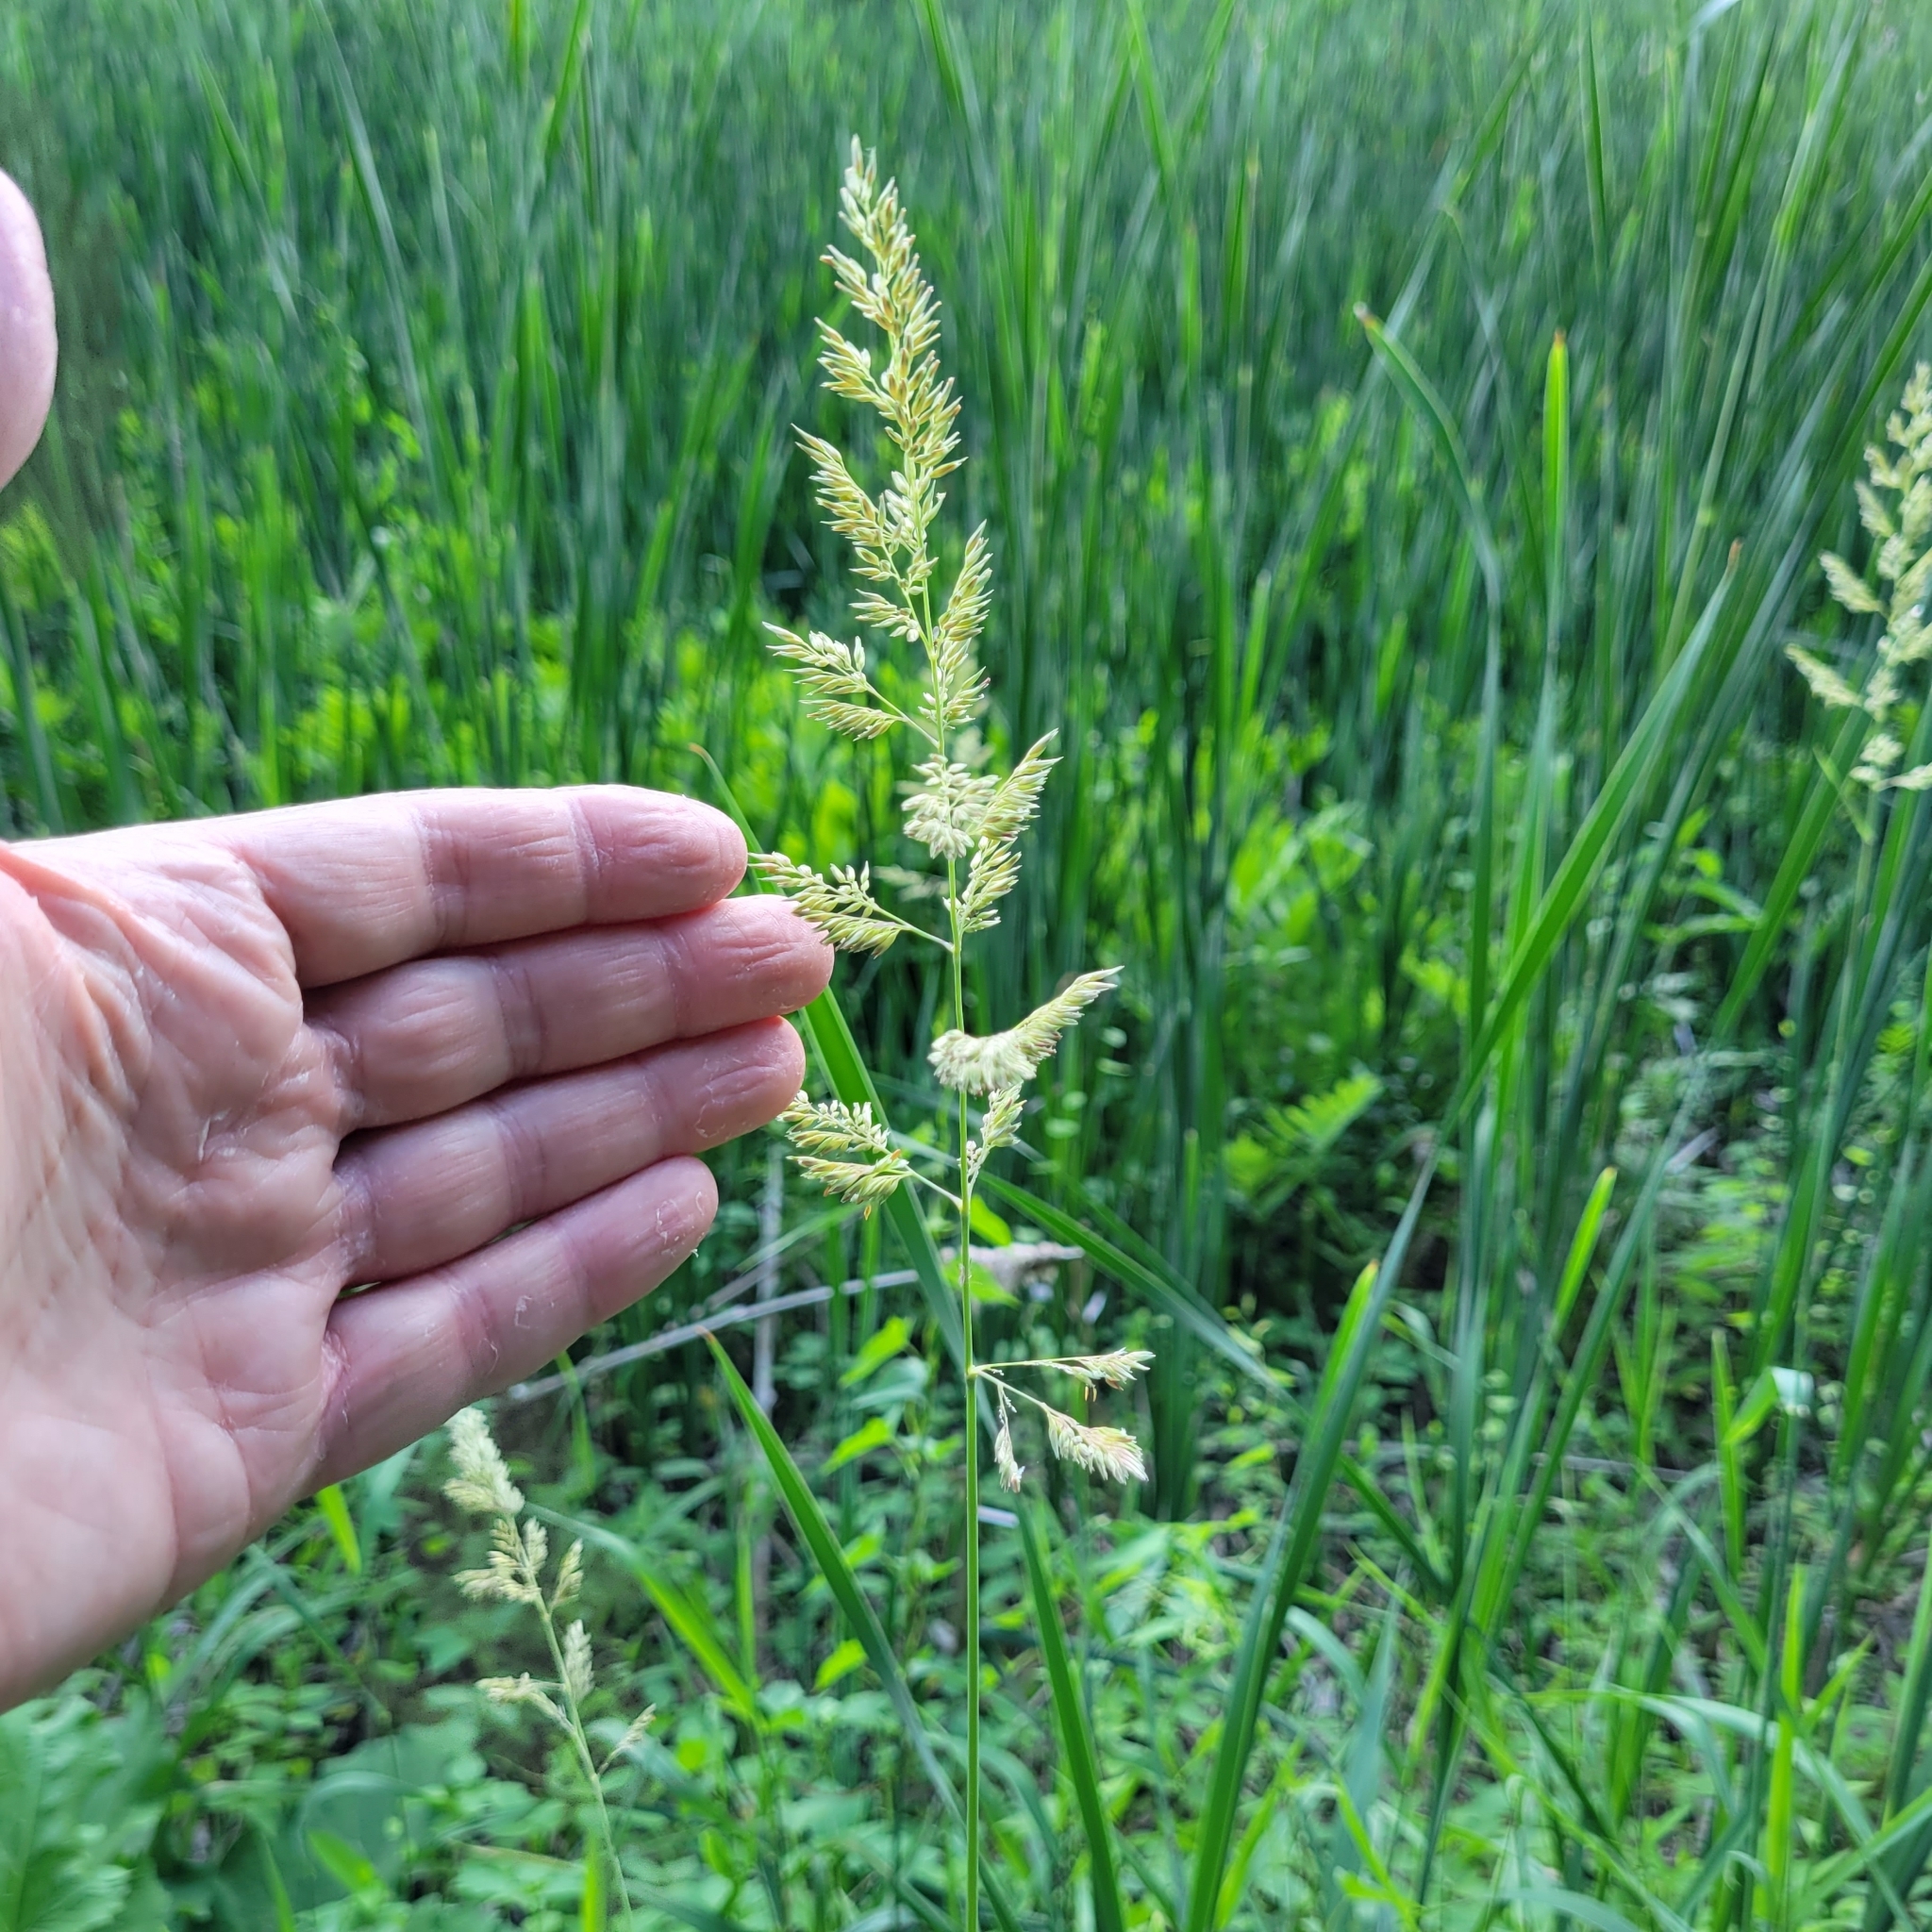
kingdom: Plantae
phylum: Tracheophyta
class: Liliopsida
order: Poales
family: Poaceae
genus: Phalaris
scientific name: Phalaris arundinacea
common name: Reed canary-grass
